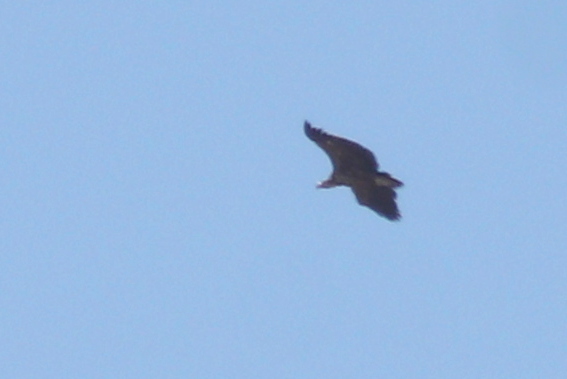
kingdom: Animalia
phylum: Chordata
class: Aves
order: Accipitriformes
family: Accipitridae
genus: Torgos
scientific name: Torgos tracheliotos
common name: Lappet-faced vulture
